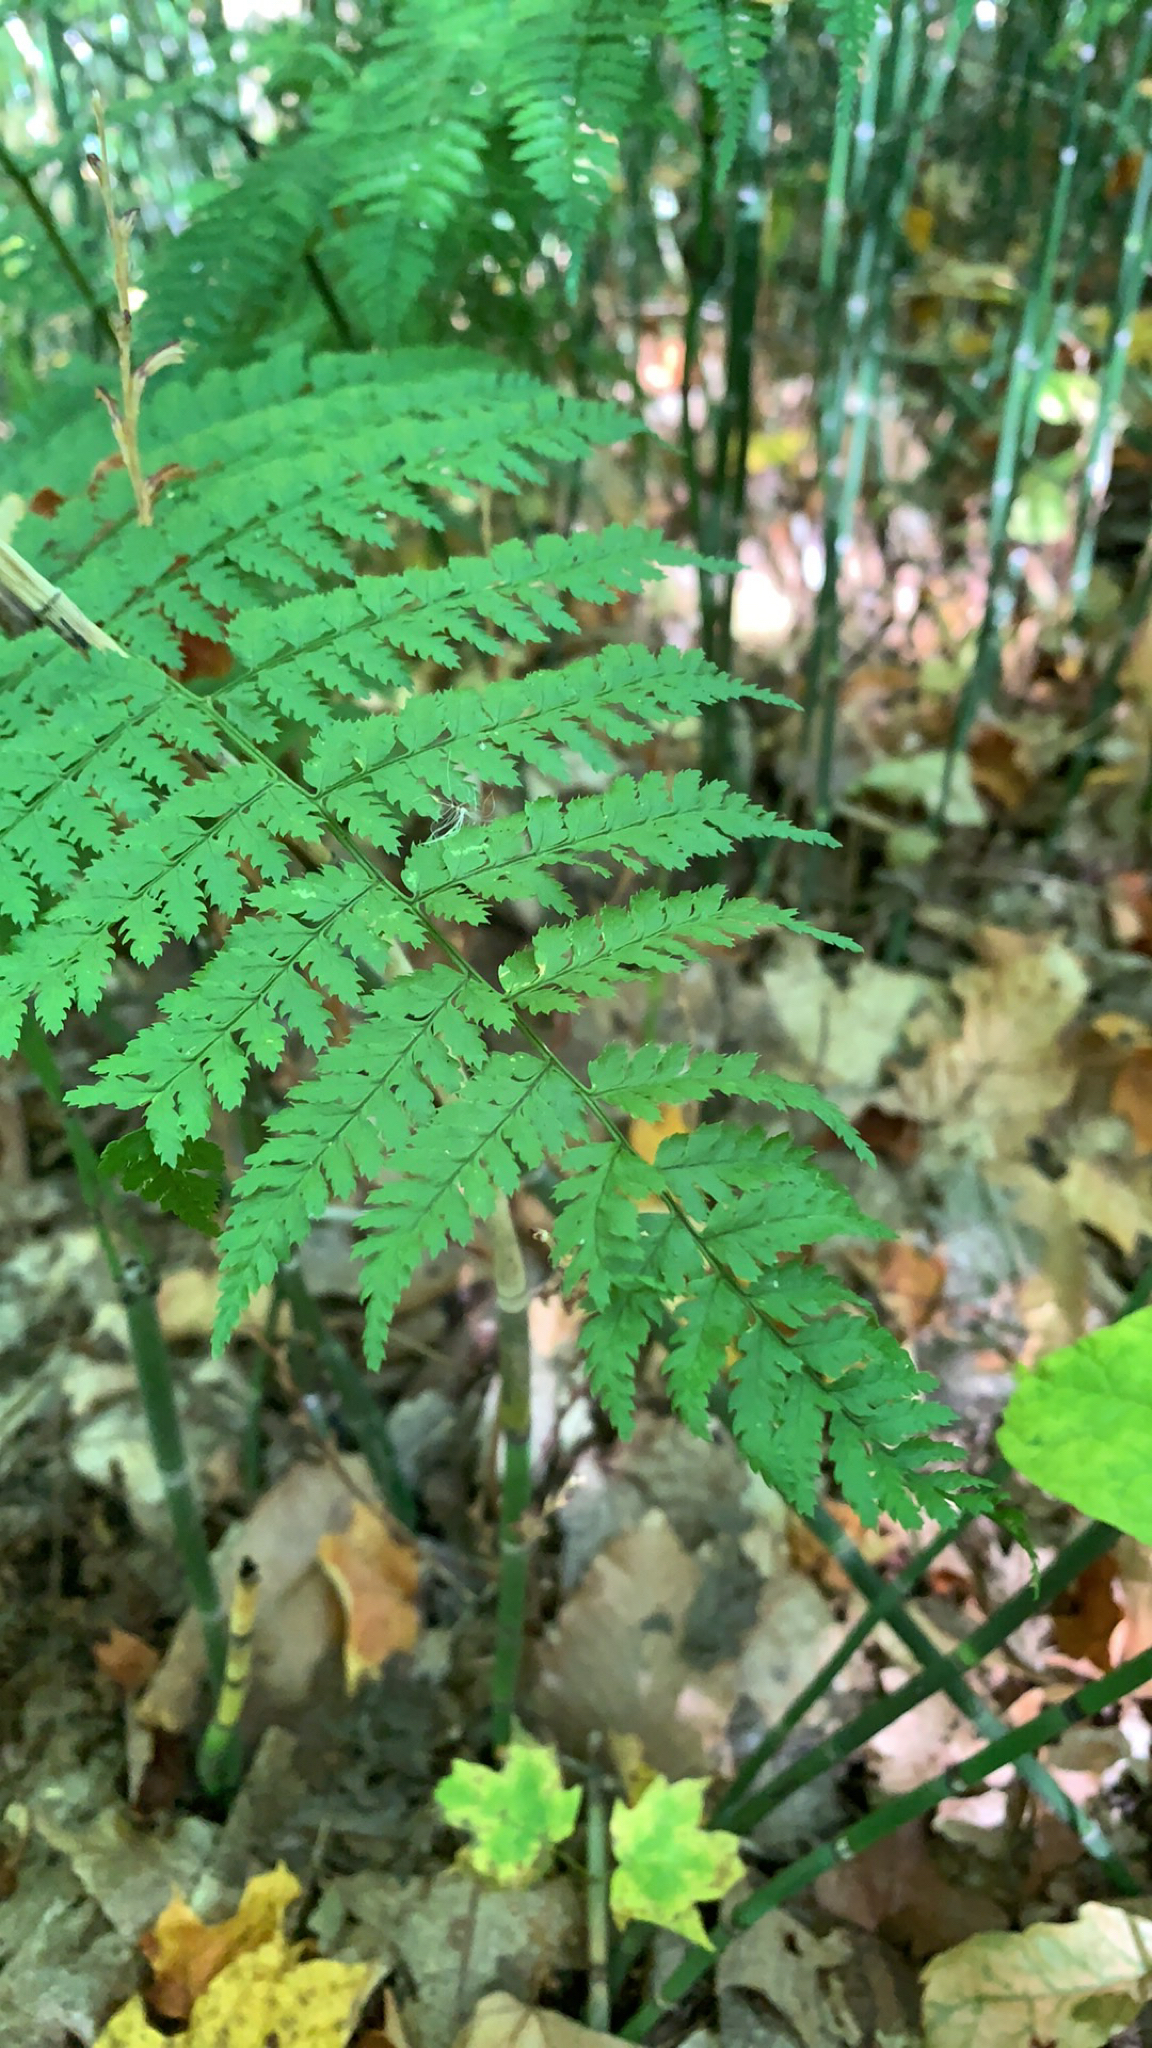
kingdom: Plantae
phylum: Tracheophyta
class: Polypodiopsida
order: Polypodiales
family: Dryopteridaceae
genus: Dryopteris
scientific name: Dryopteris intermedia
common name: Evergreen wood fern
